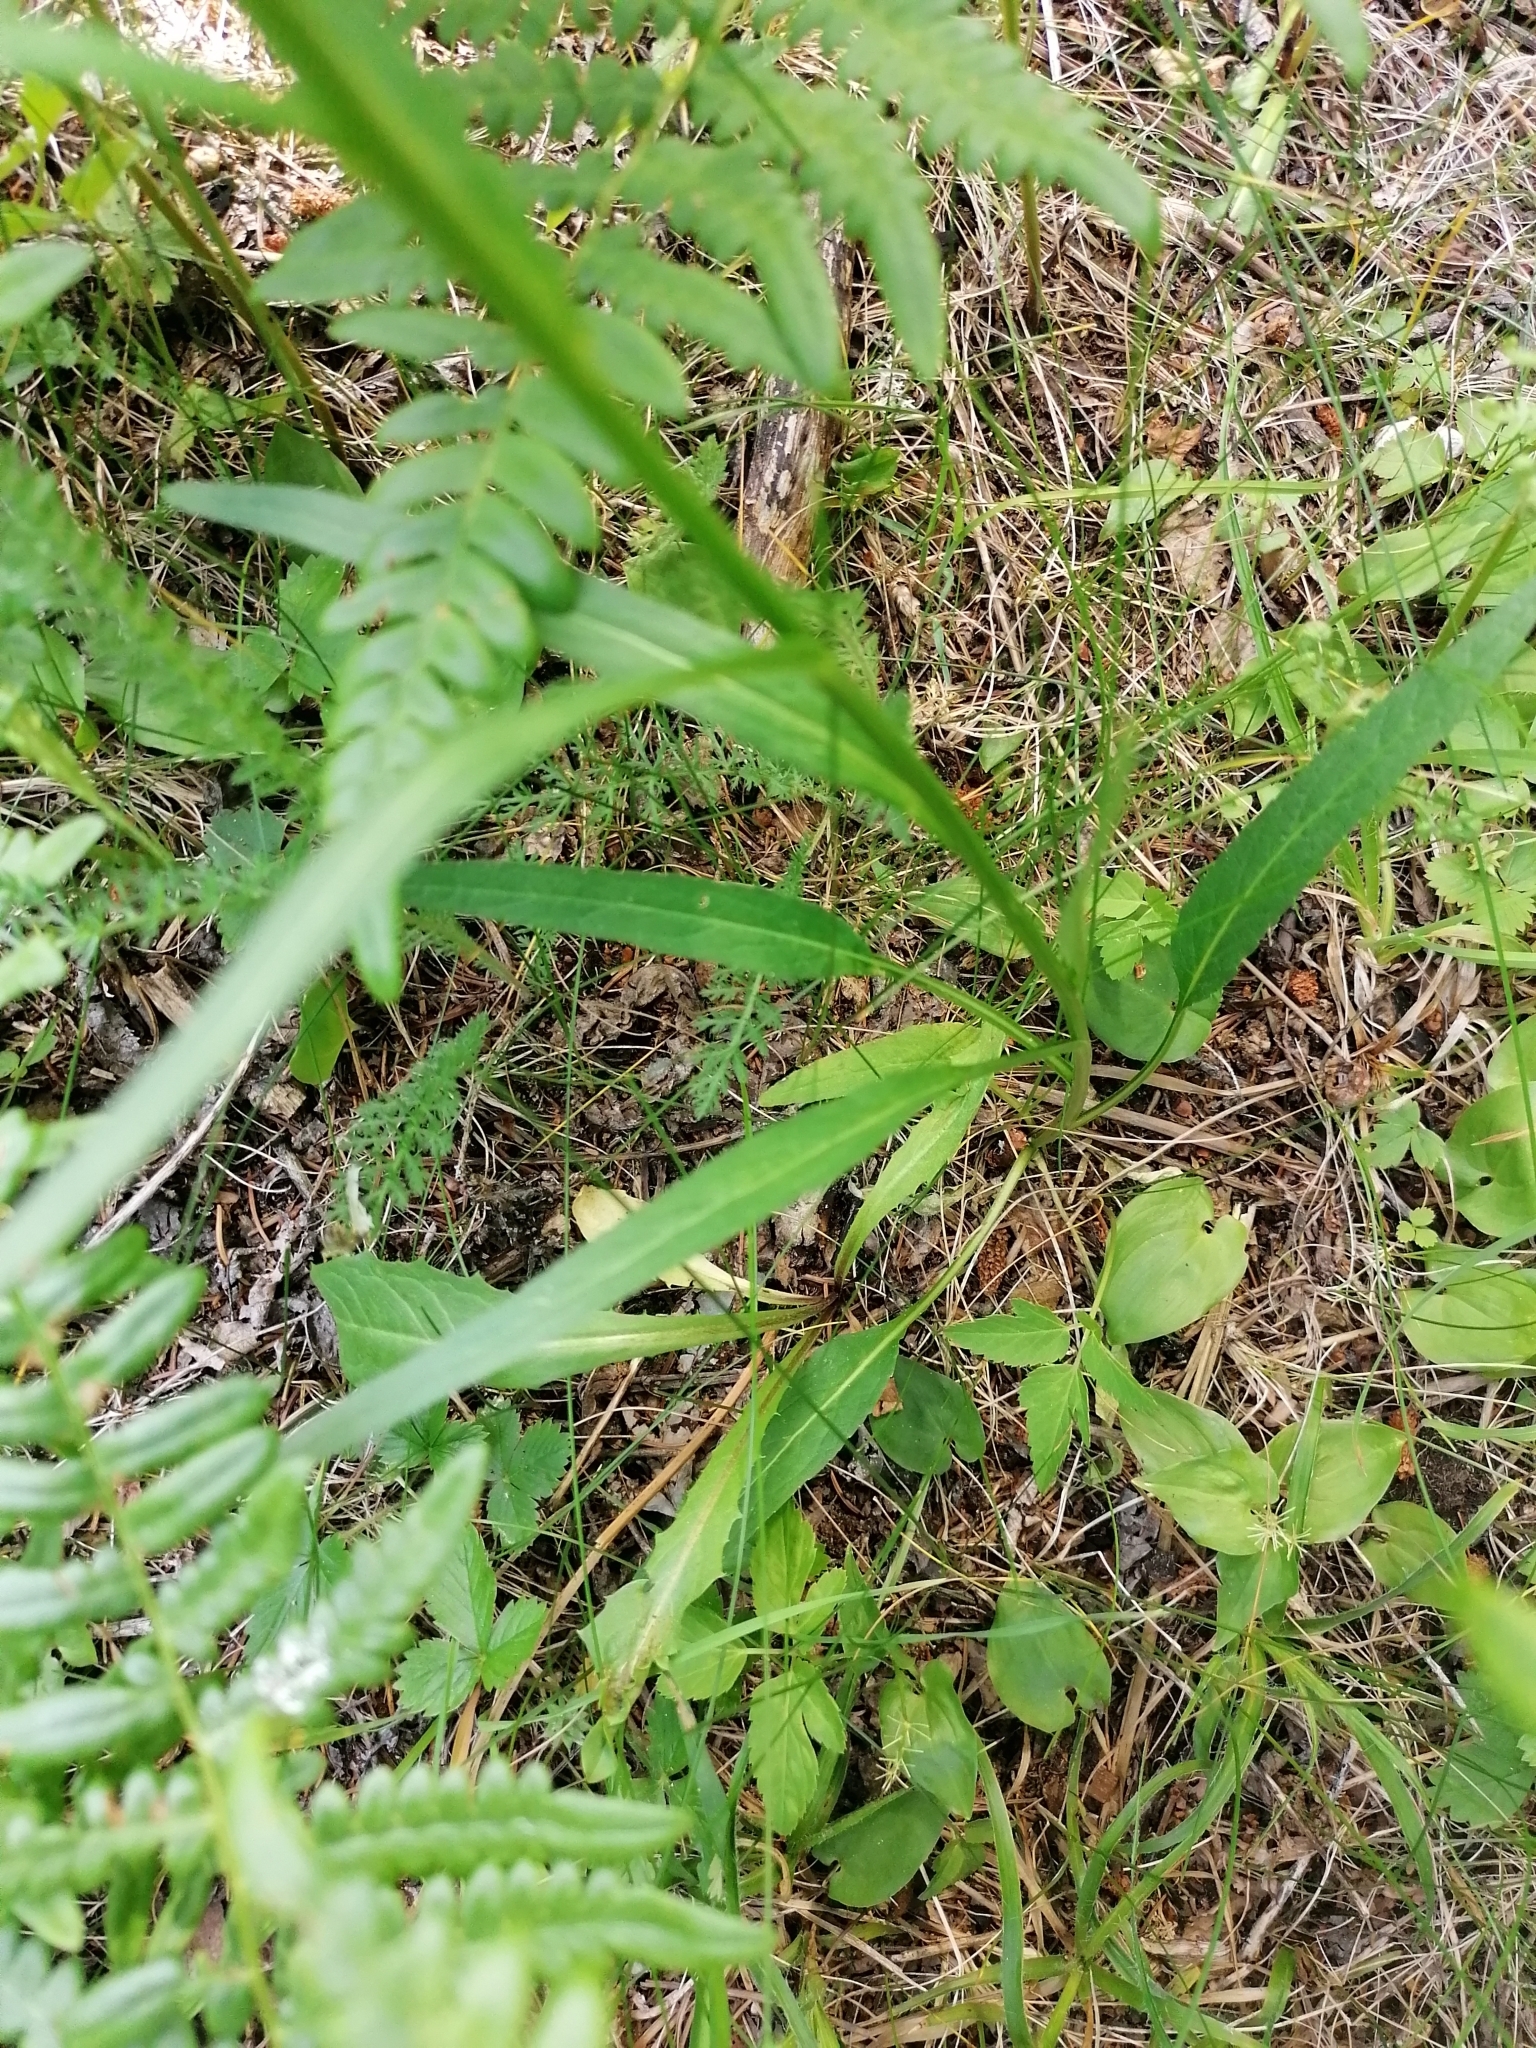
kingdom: Plantae
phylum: Tracheophyta
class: Magnoliopsida
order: Asterales
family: Campanulaceae
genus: Phyteuma
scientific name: Phyteuma persicifolium
